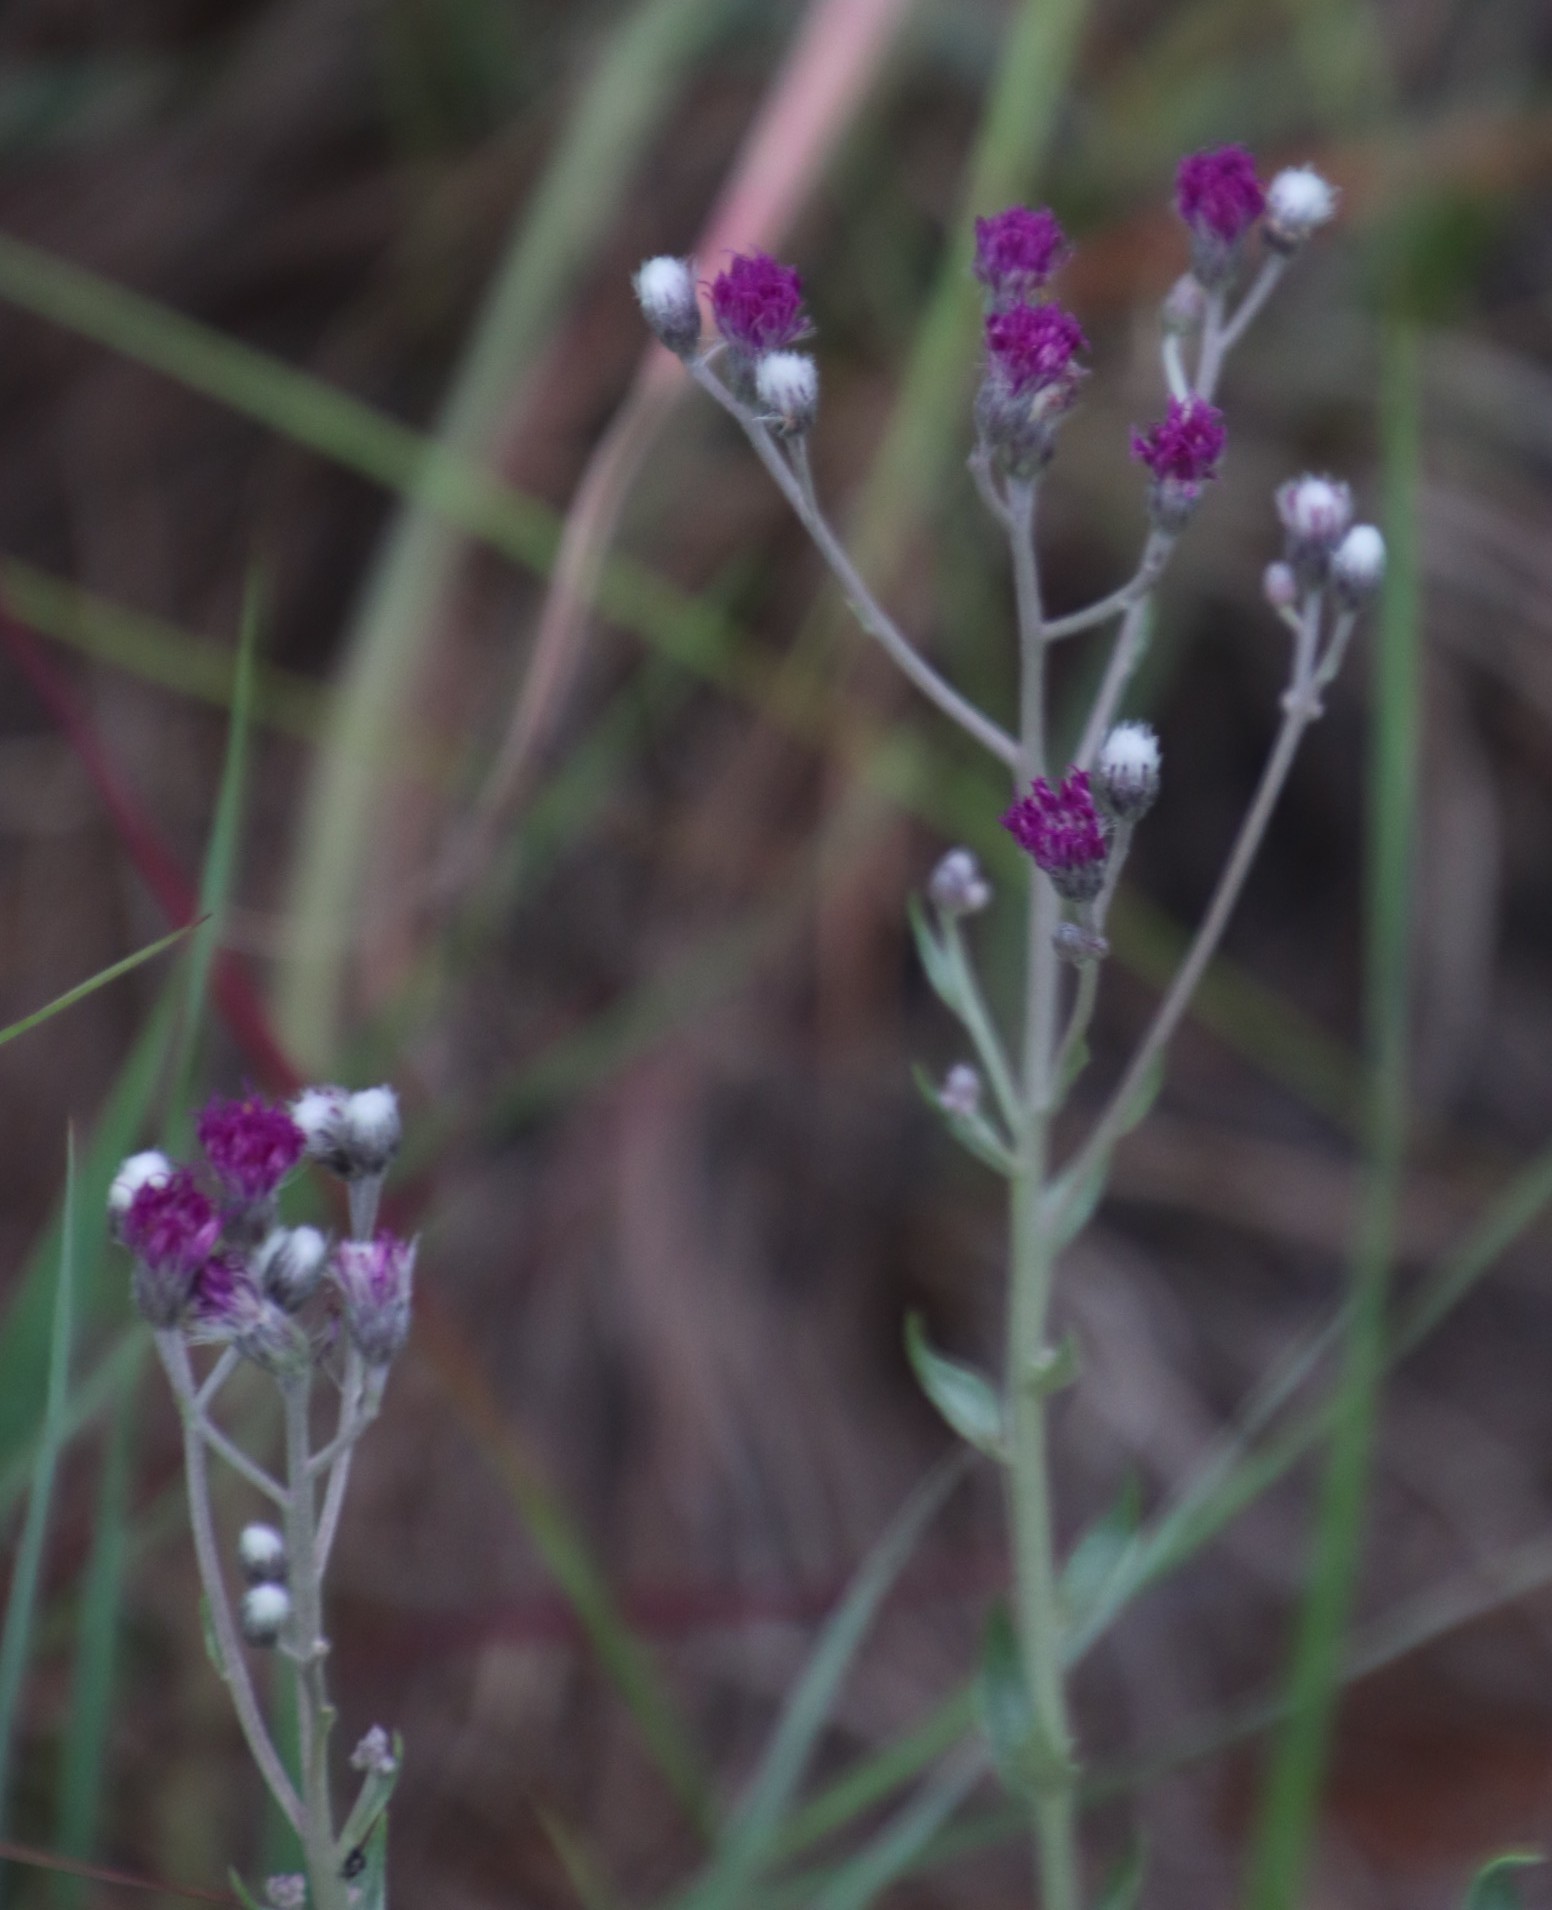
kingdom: Plantae
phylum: Tracheophyta
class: Magnoliopsida
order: Asterales
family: Asteraceae
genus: Hilliardiella
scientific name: Hilliardiella oligocephala
